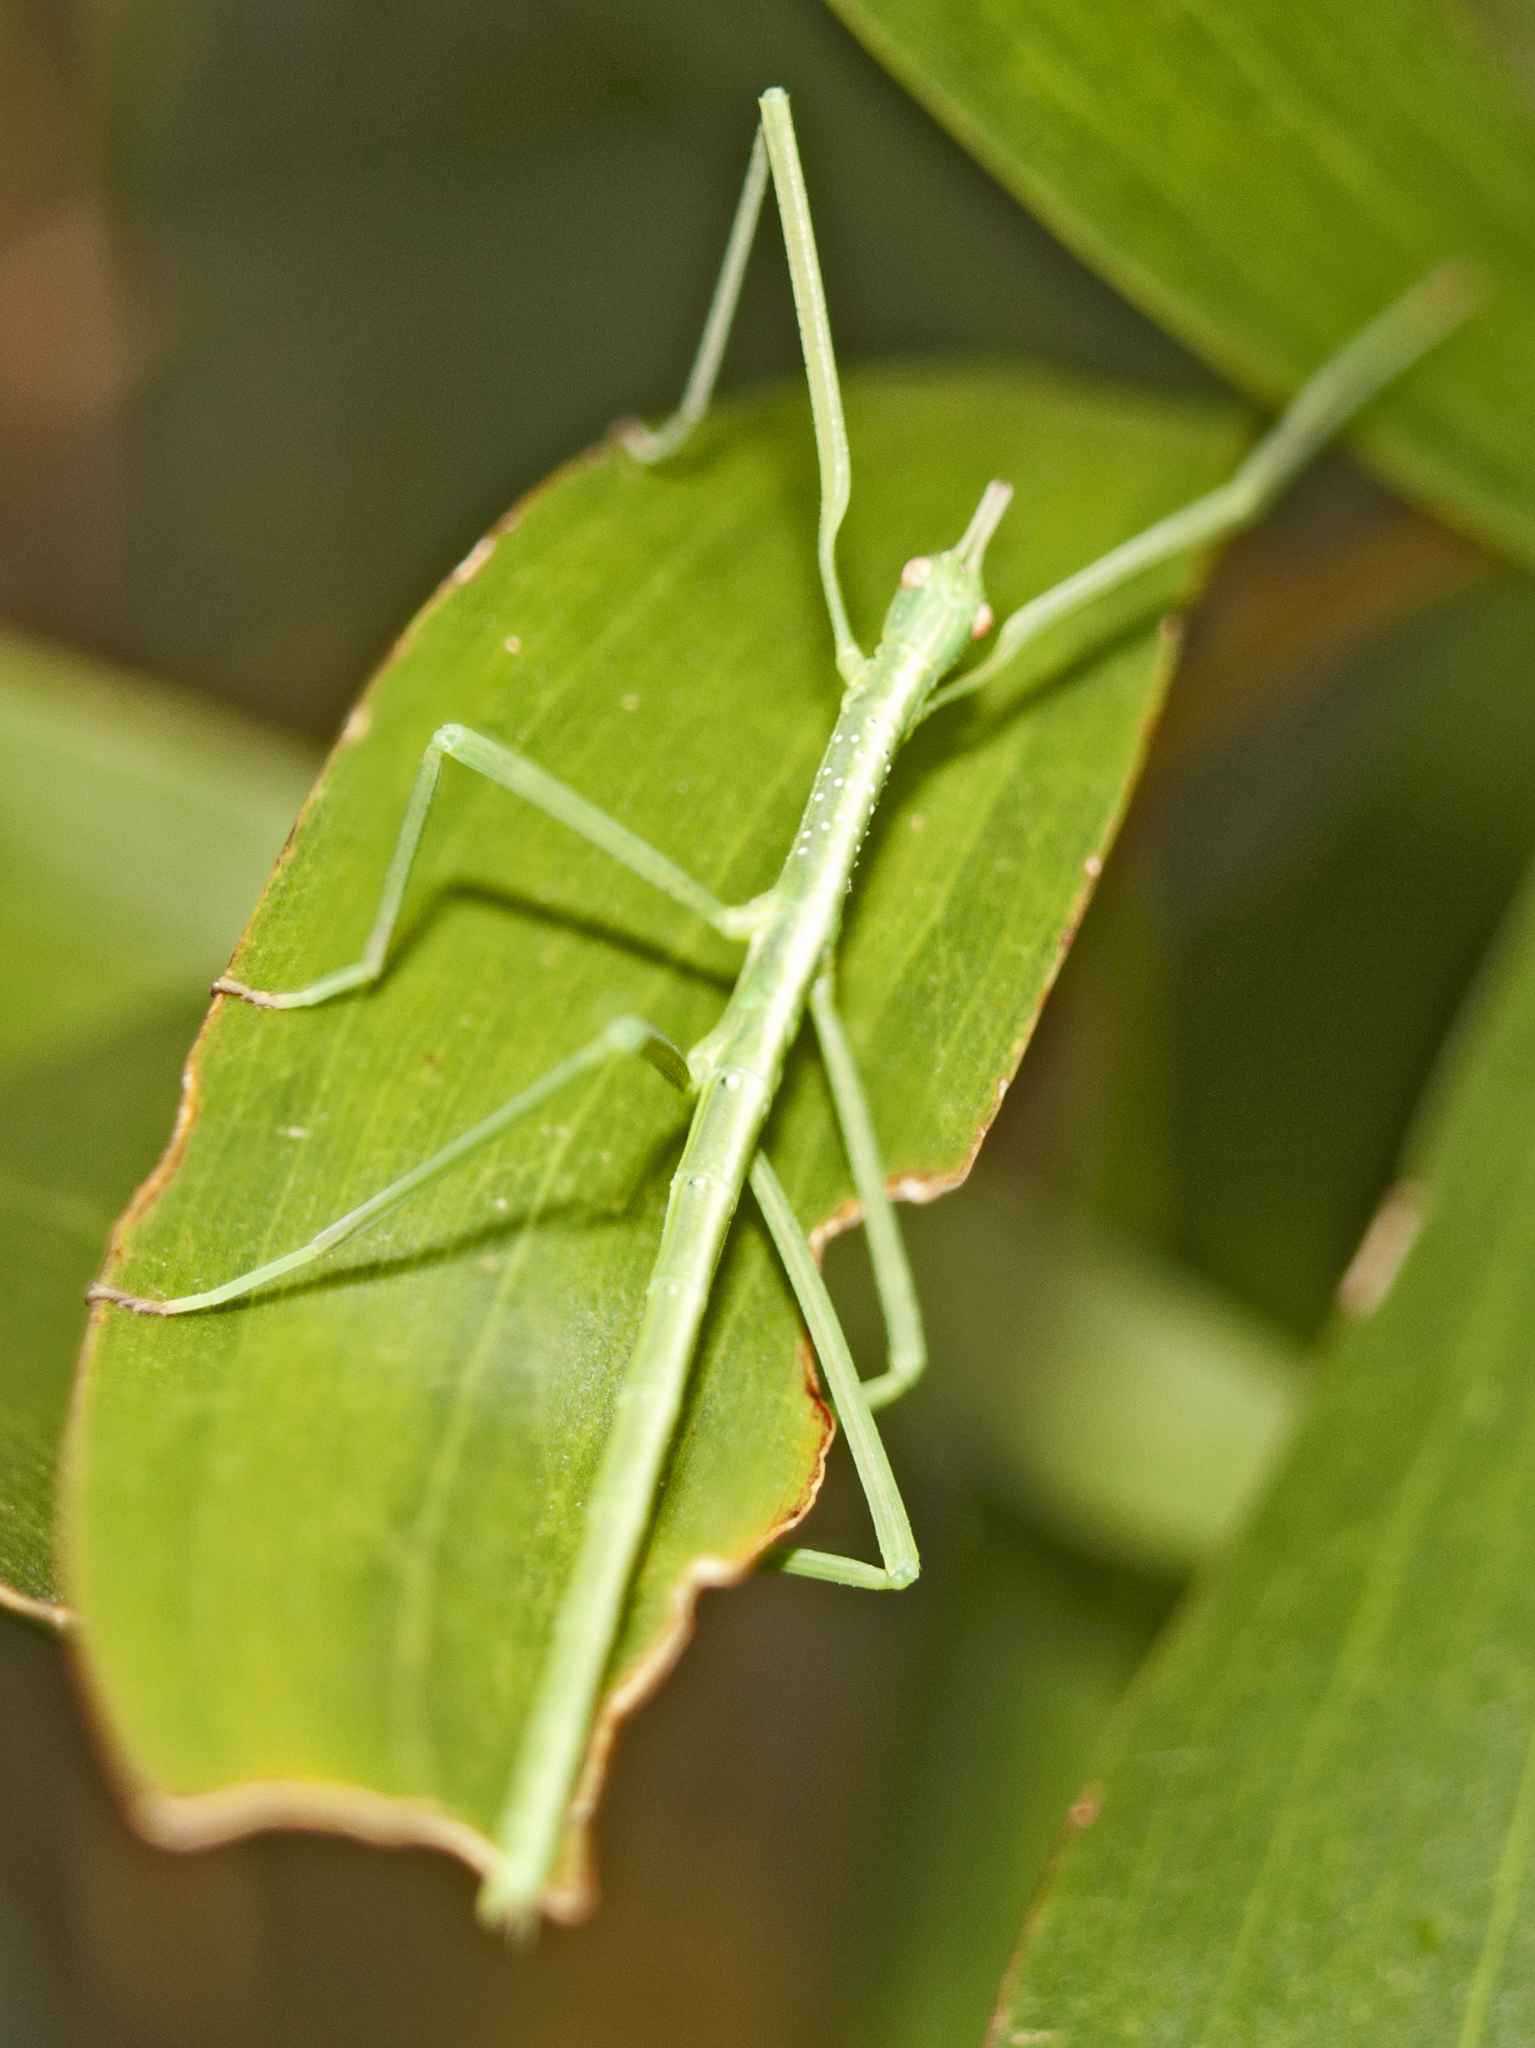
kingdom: Animalia
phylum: Arthropoda
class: Insecta
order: Phasmida
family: Phasmatidae
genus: Anchiale
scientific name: Anchiale austrotessulata
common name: Tessellated stick-insect
